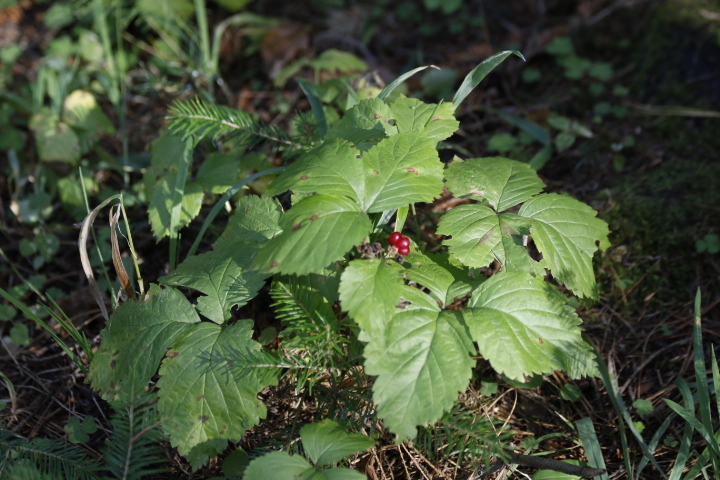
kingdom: Plantae
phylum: Tracheophyta
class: Magnoliopsida
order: Rosales
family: Rosaceae
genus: Rubus
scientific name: Rubus saxatilis
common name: Stone bramble
